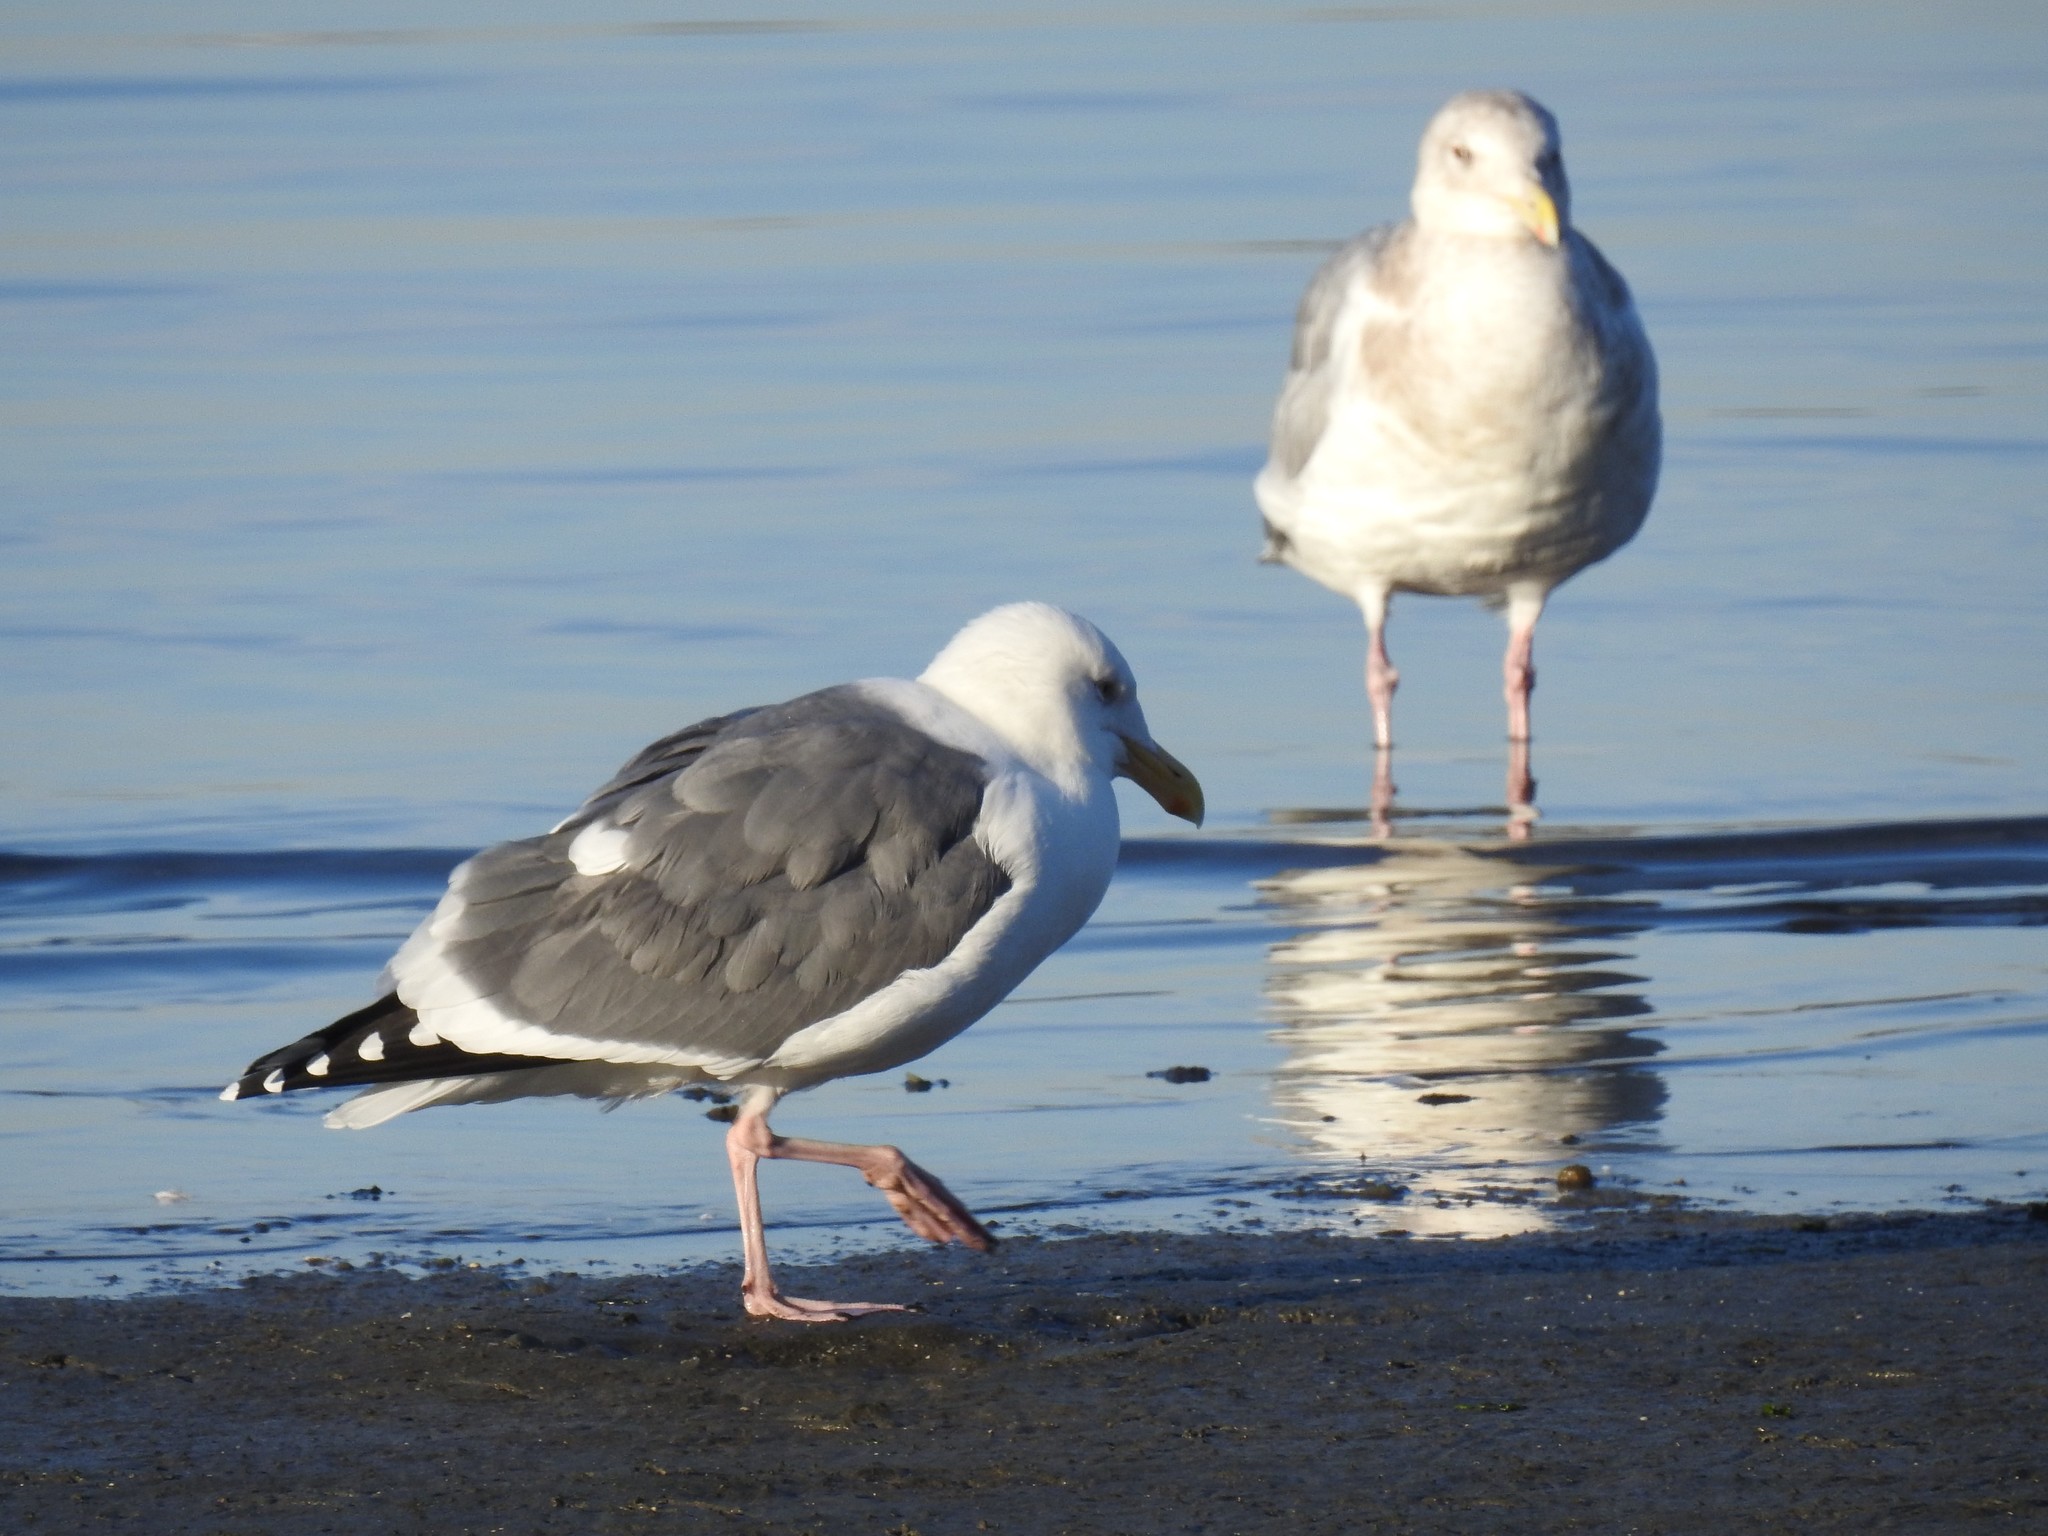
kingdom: Animalia
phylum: Chordata
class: Aves
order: Charadriiformes
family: Laridae
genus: Larus
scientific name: Larus occidentalis
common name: Western gull
